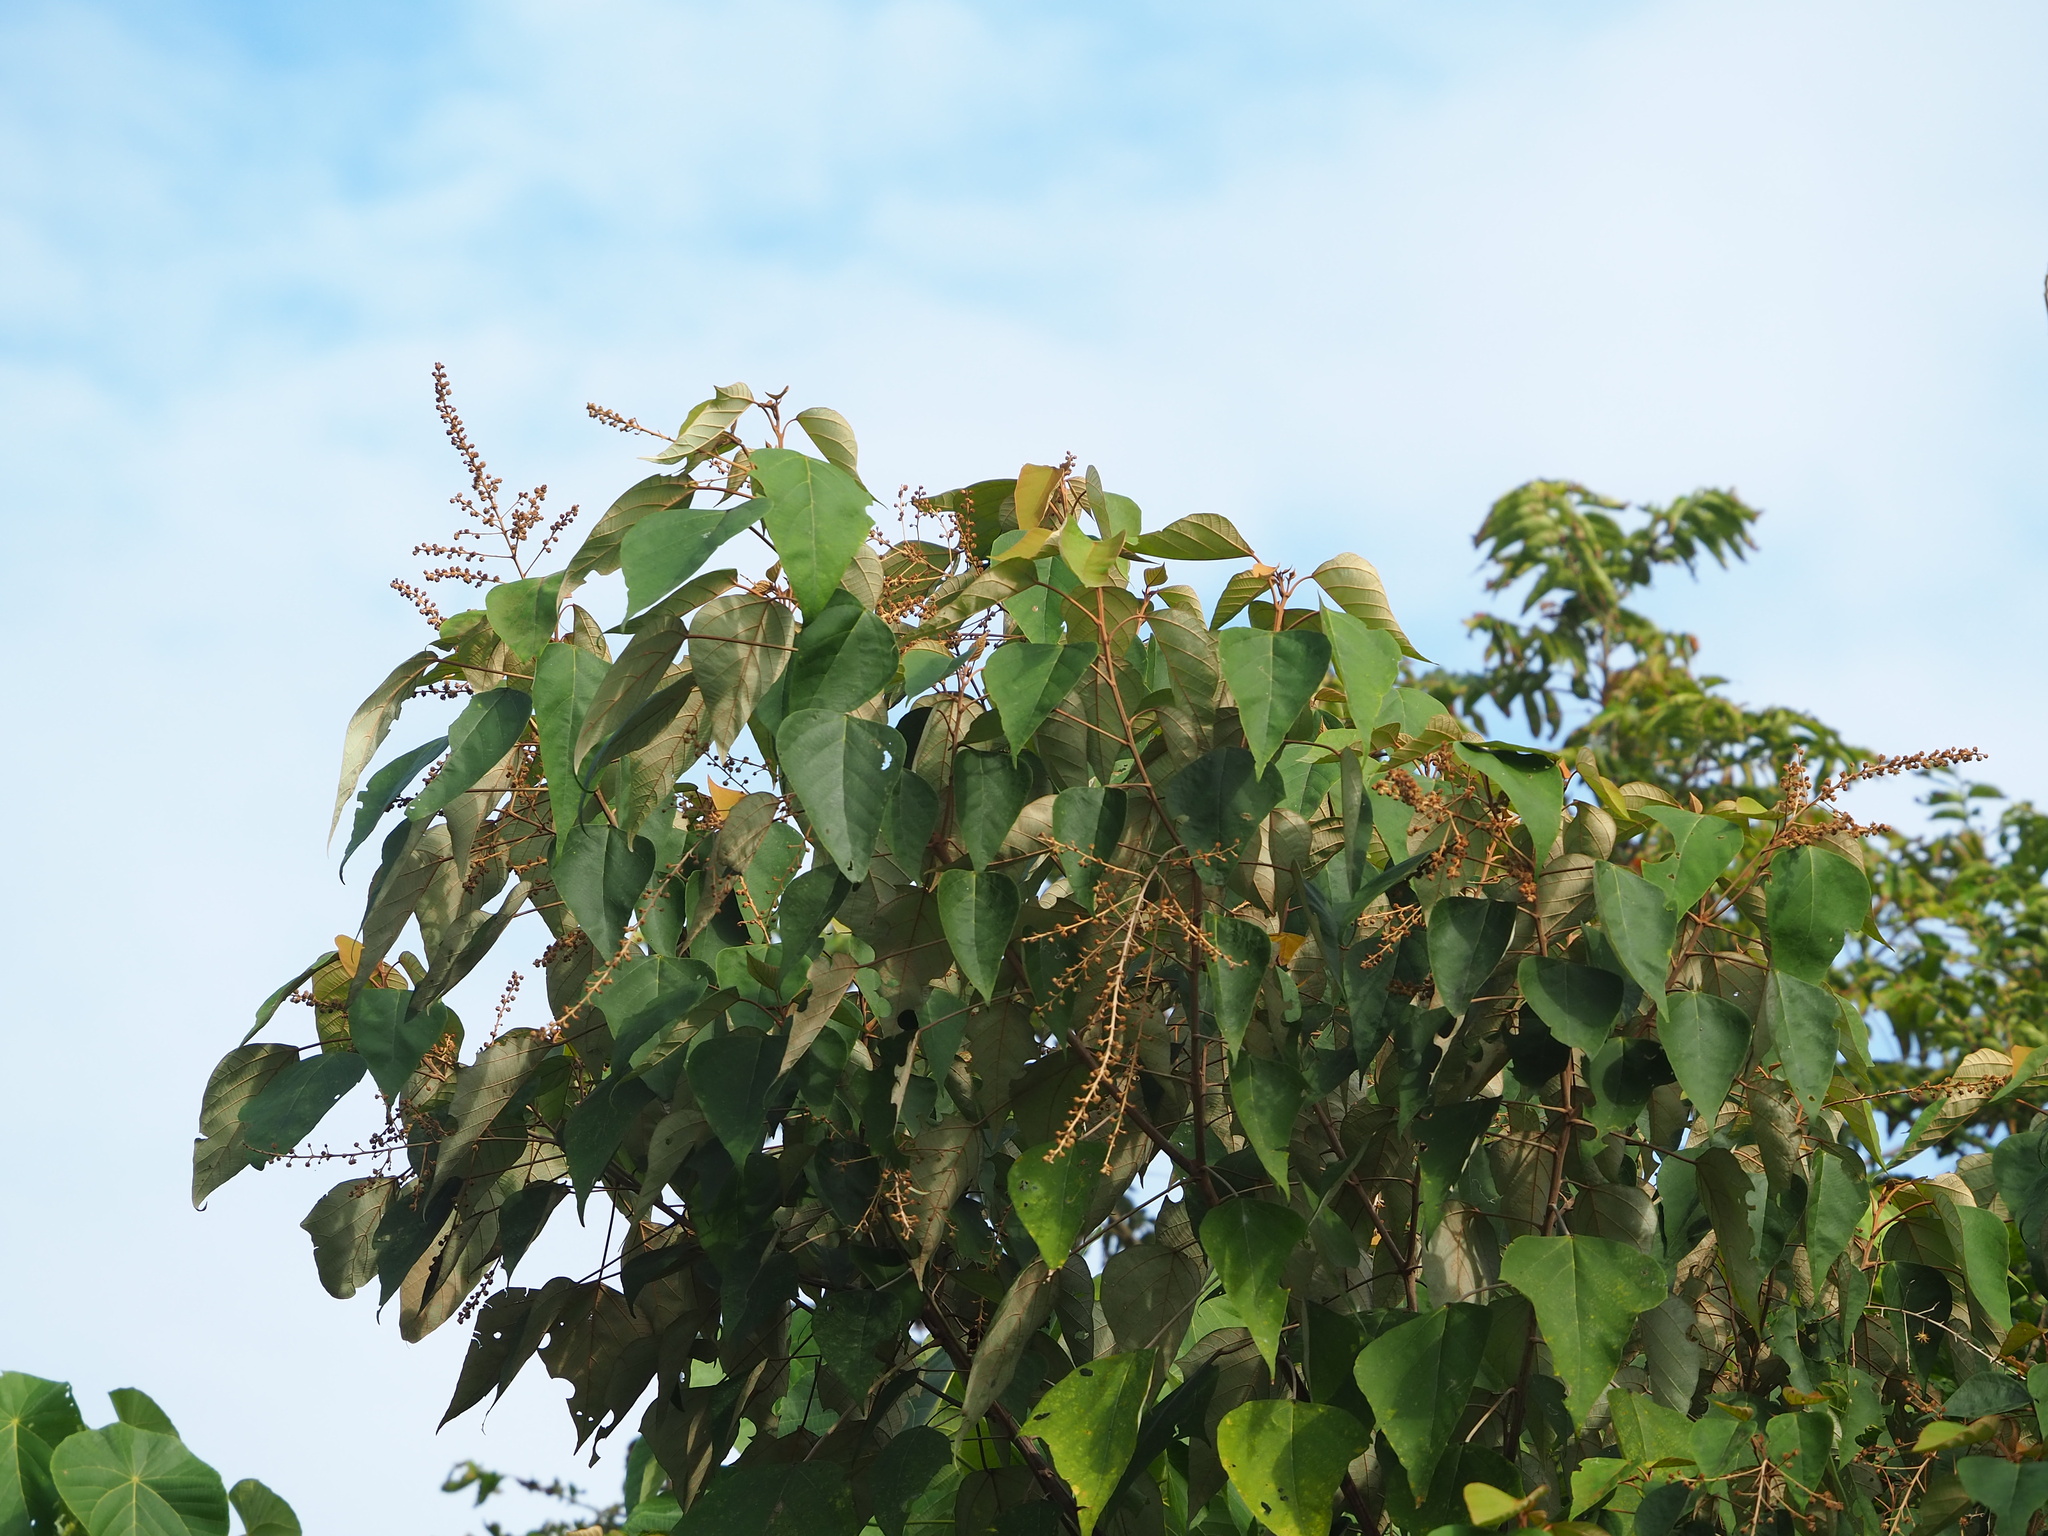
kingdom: Plantae
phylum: Tracheophyta
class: Magnoliopsida
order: Malpighiales
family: Euphorbiaceae
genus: Mallotus
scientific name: Mallotus paniculatus
